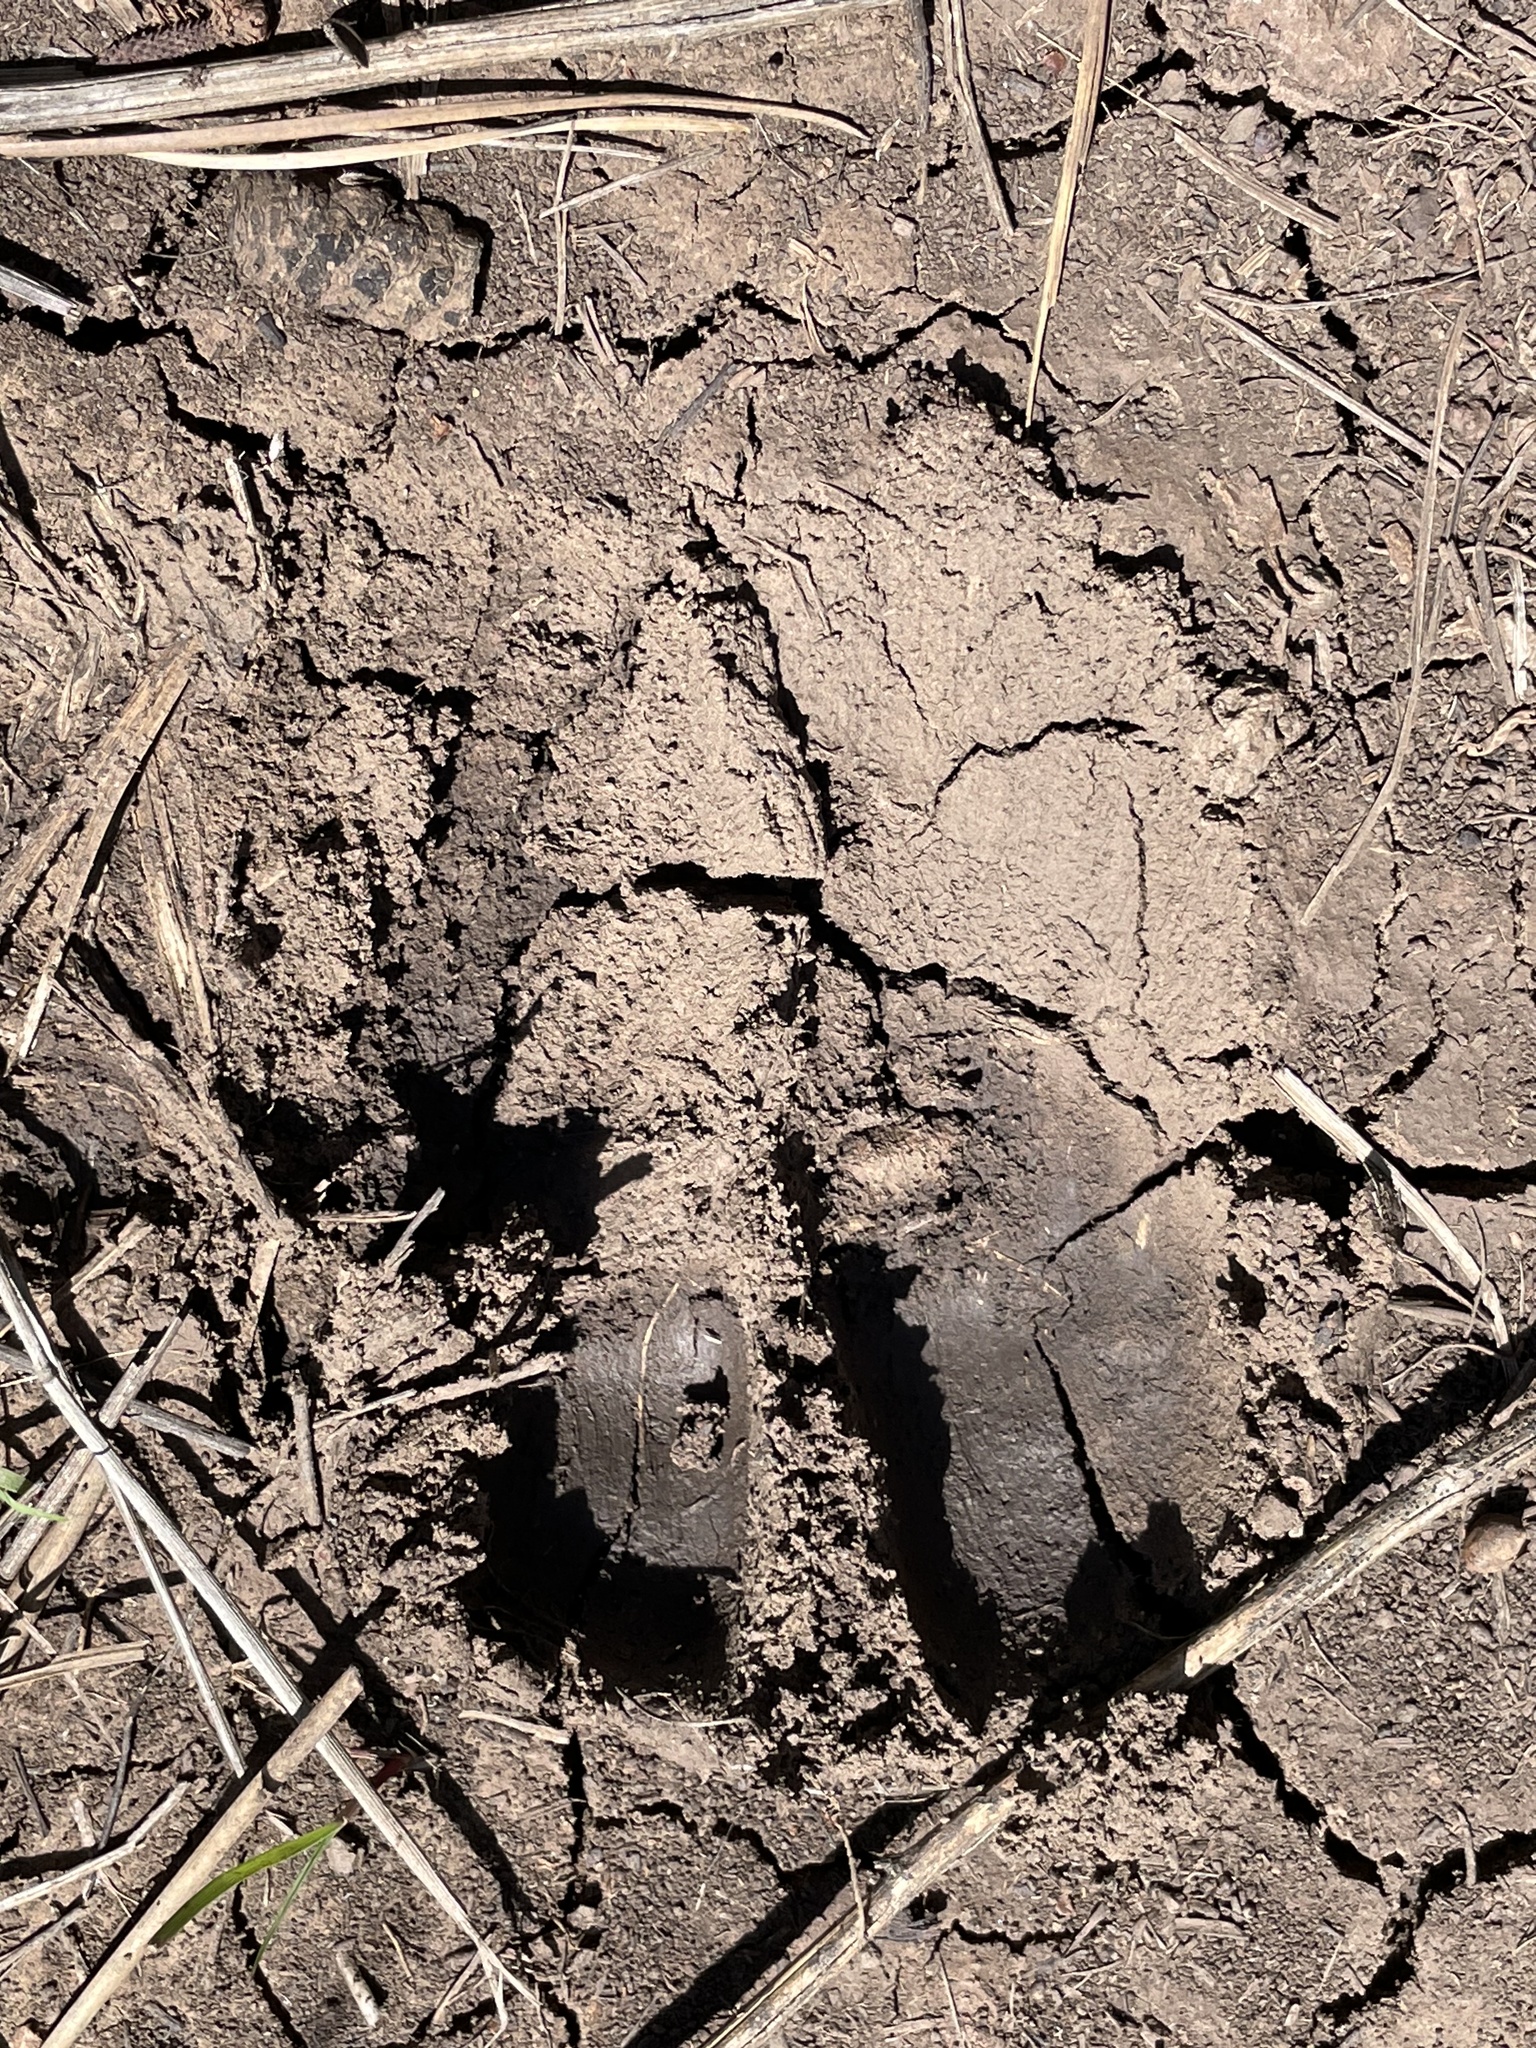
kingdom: Animalia
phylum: Chordata
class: Mammalia
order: Artiodactyla
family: Tayassuidae
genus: Pecari
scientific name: Pecari tajacu
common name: Collared peccary
